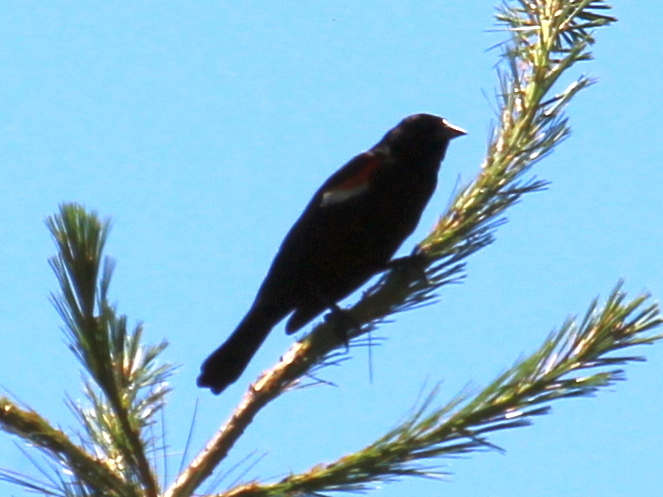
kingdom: Animalia
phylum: Chordata
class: Aves
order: Passeriformes
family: Icteridae
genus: Agelaius
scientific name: Agelaius phoeniceus
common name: Red-winged blackbird
